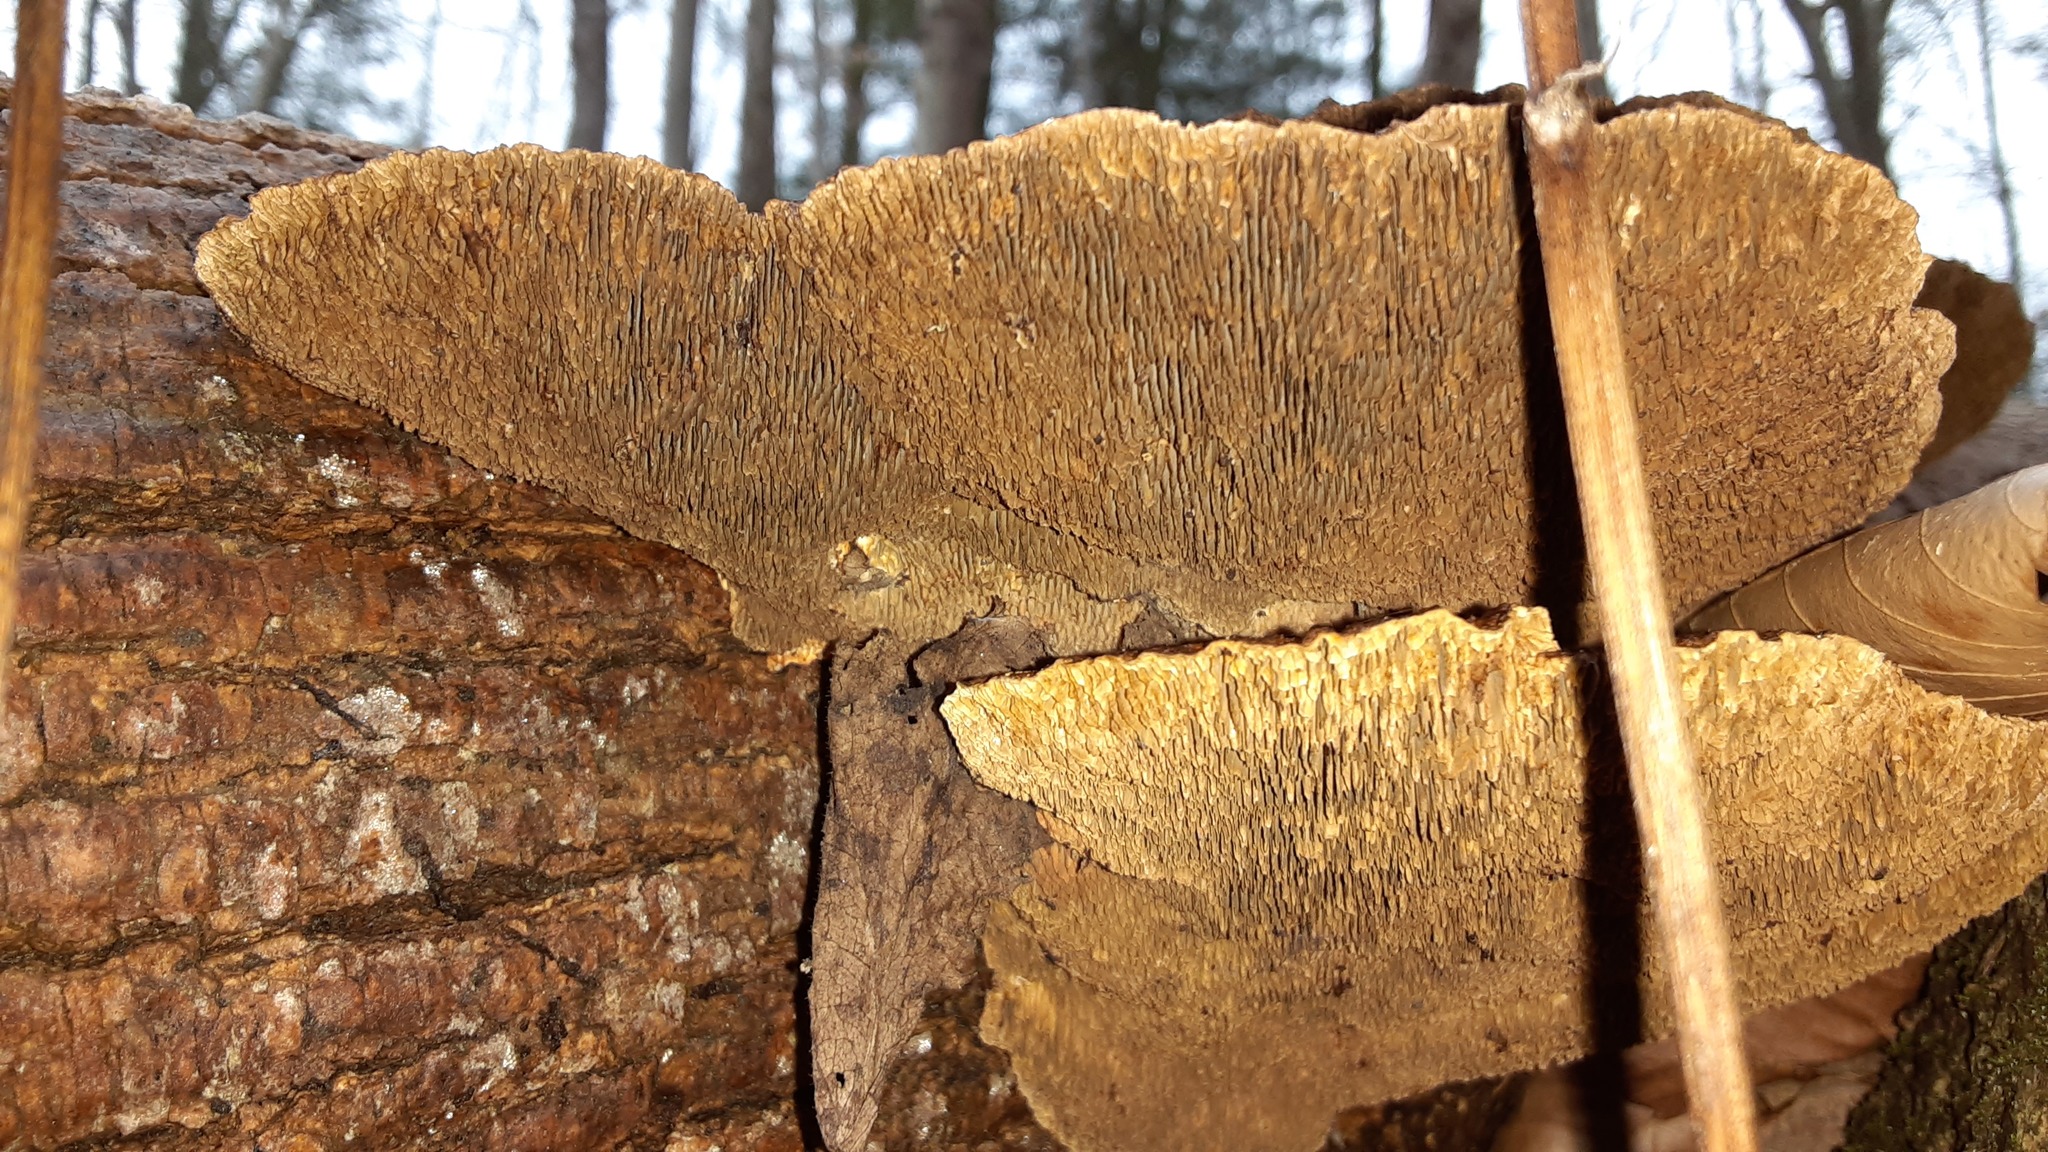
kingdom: Fungi
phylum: Basidiomycota
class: Agaricomycetes
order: Polyporales
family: Polyporaceae
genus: Daedaleopsis
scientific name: Daedaleopsis confragosa
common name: Blushing bracket
